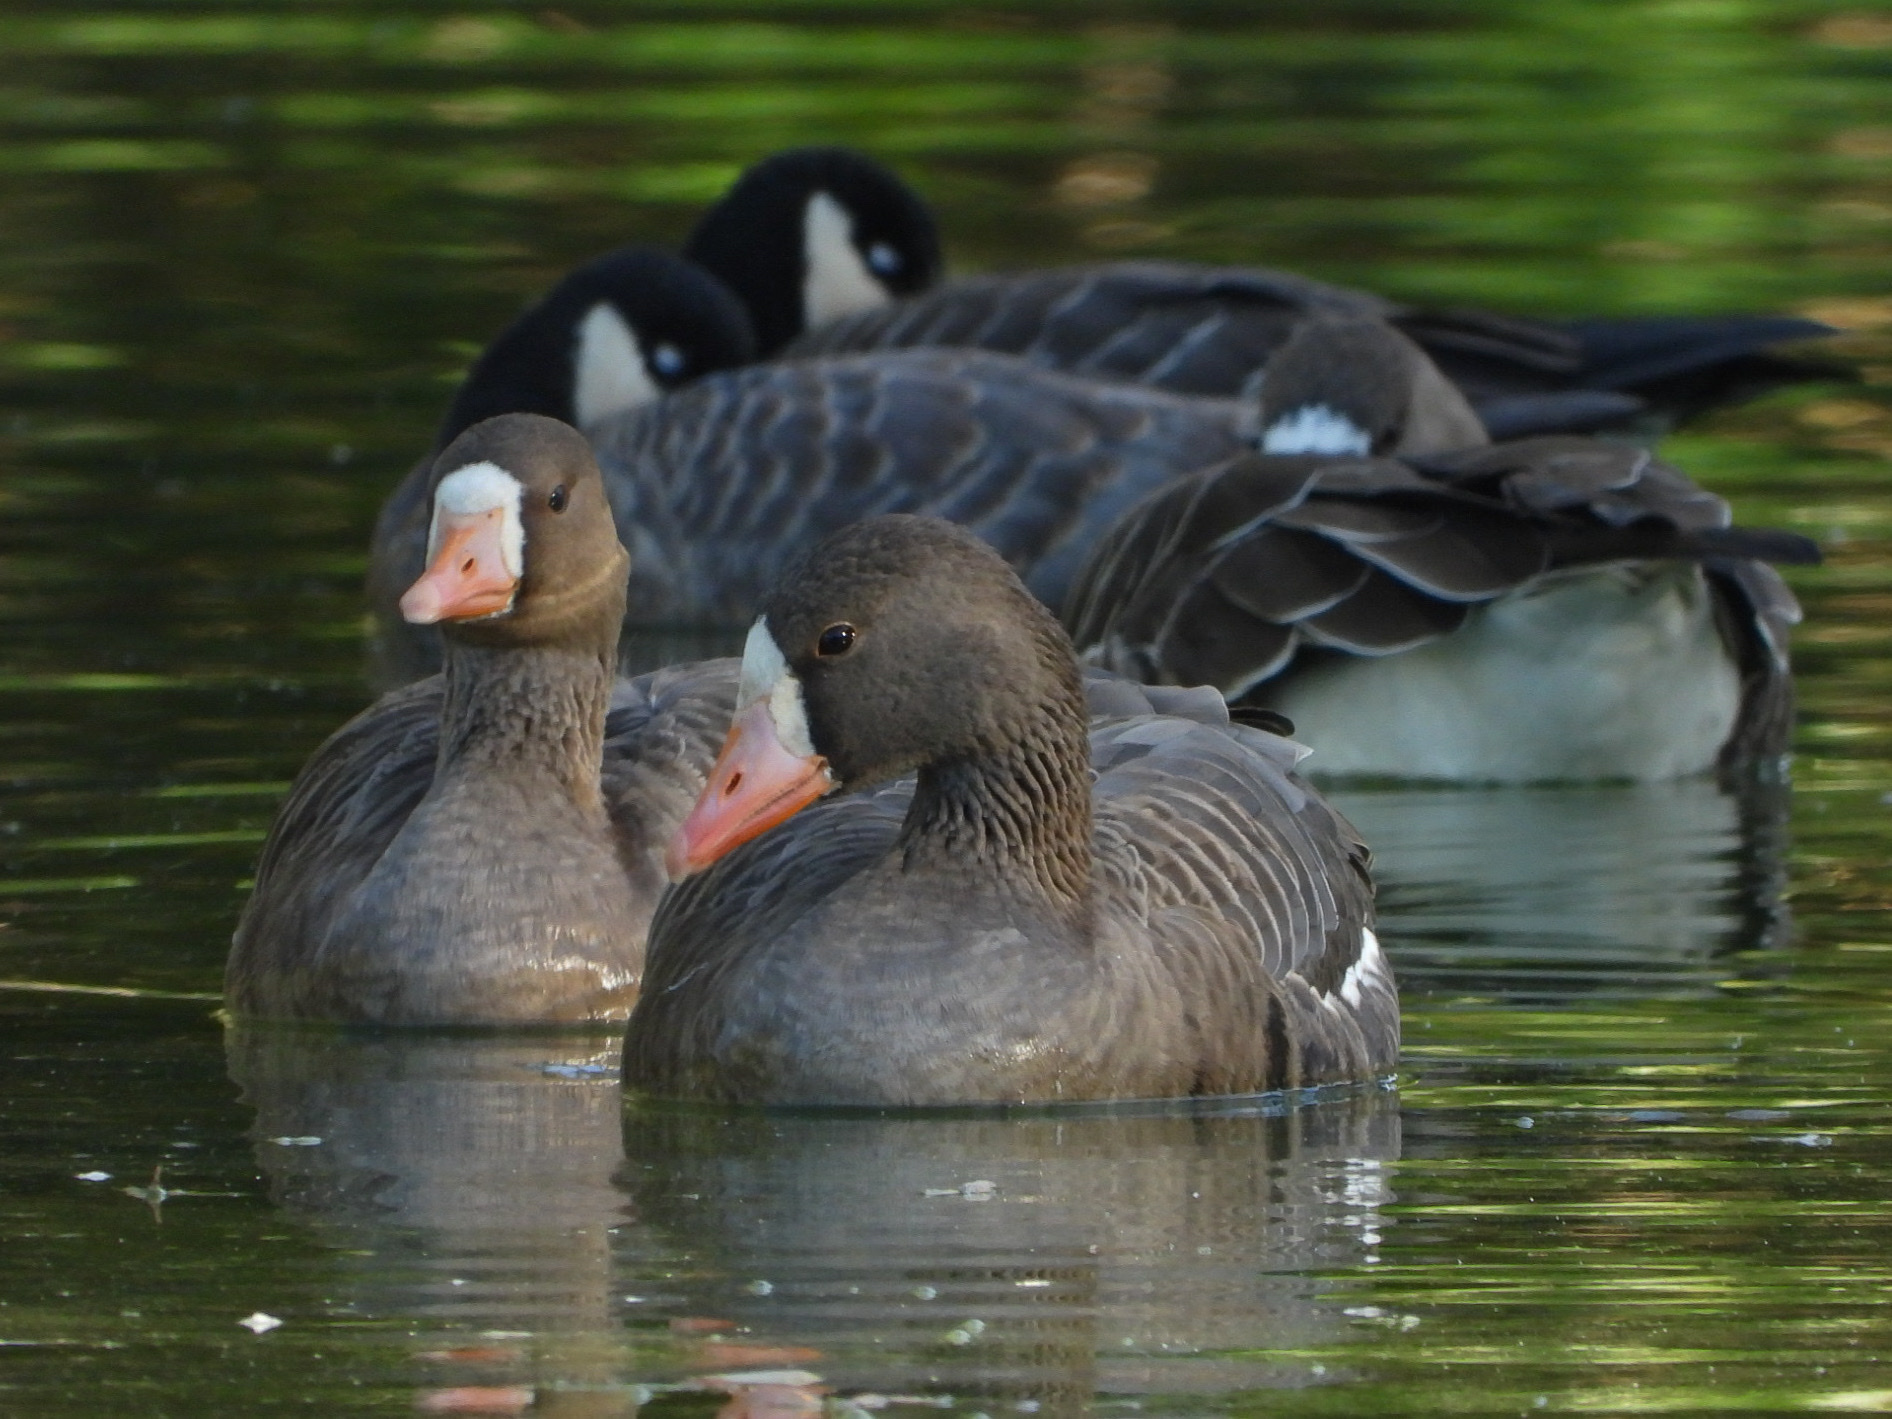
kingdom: Animalia
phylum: Chordata
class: Aves
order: Anseriformes
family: Anatidae
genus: Anser
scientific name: Anser albifrons
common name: Greater white-fronted goose
